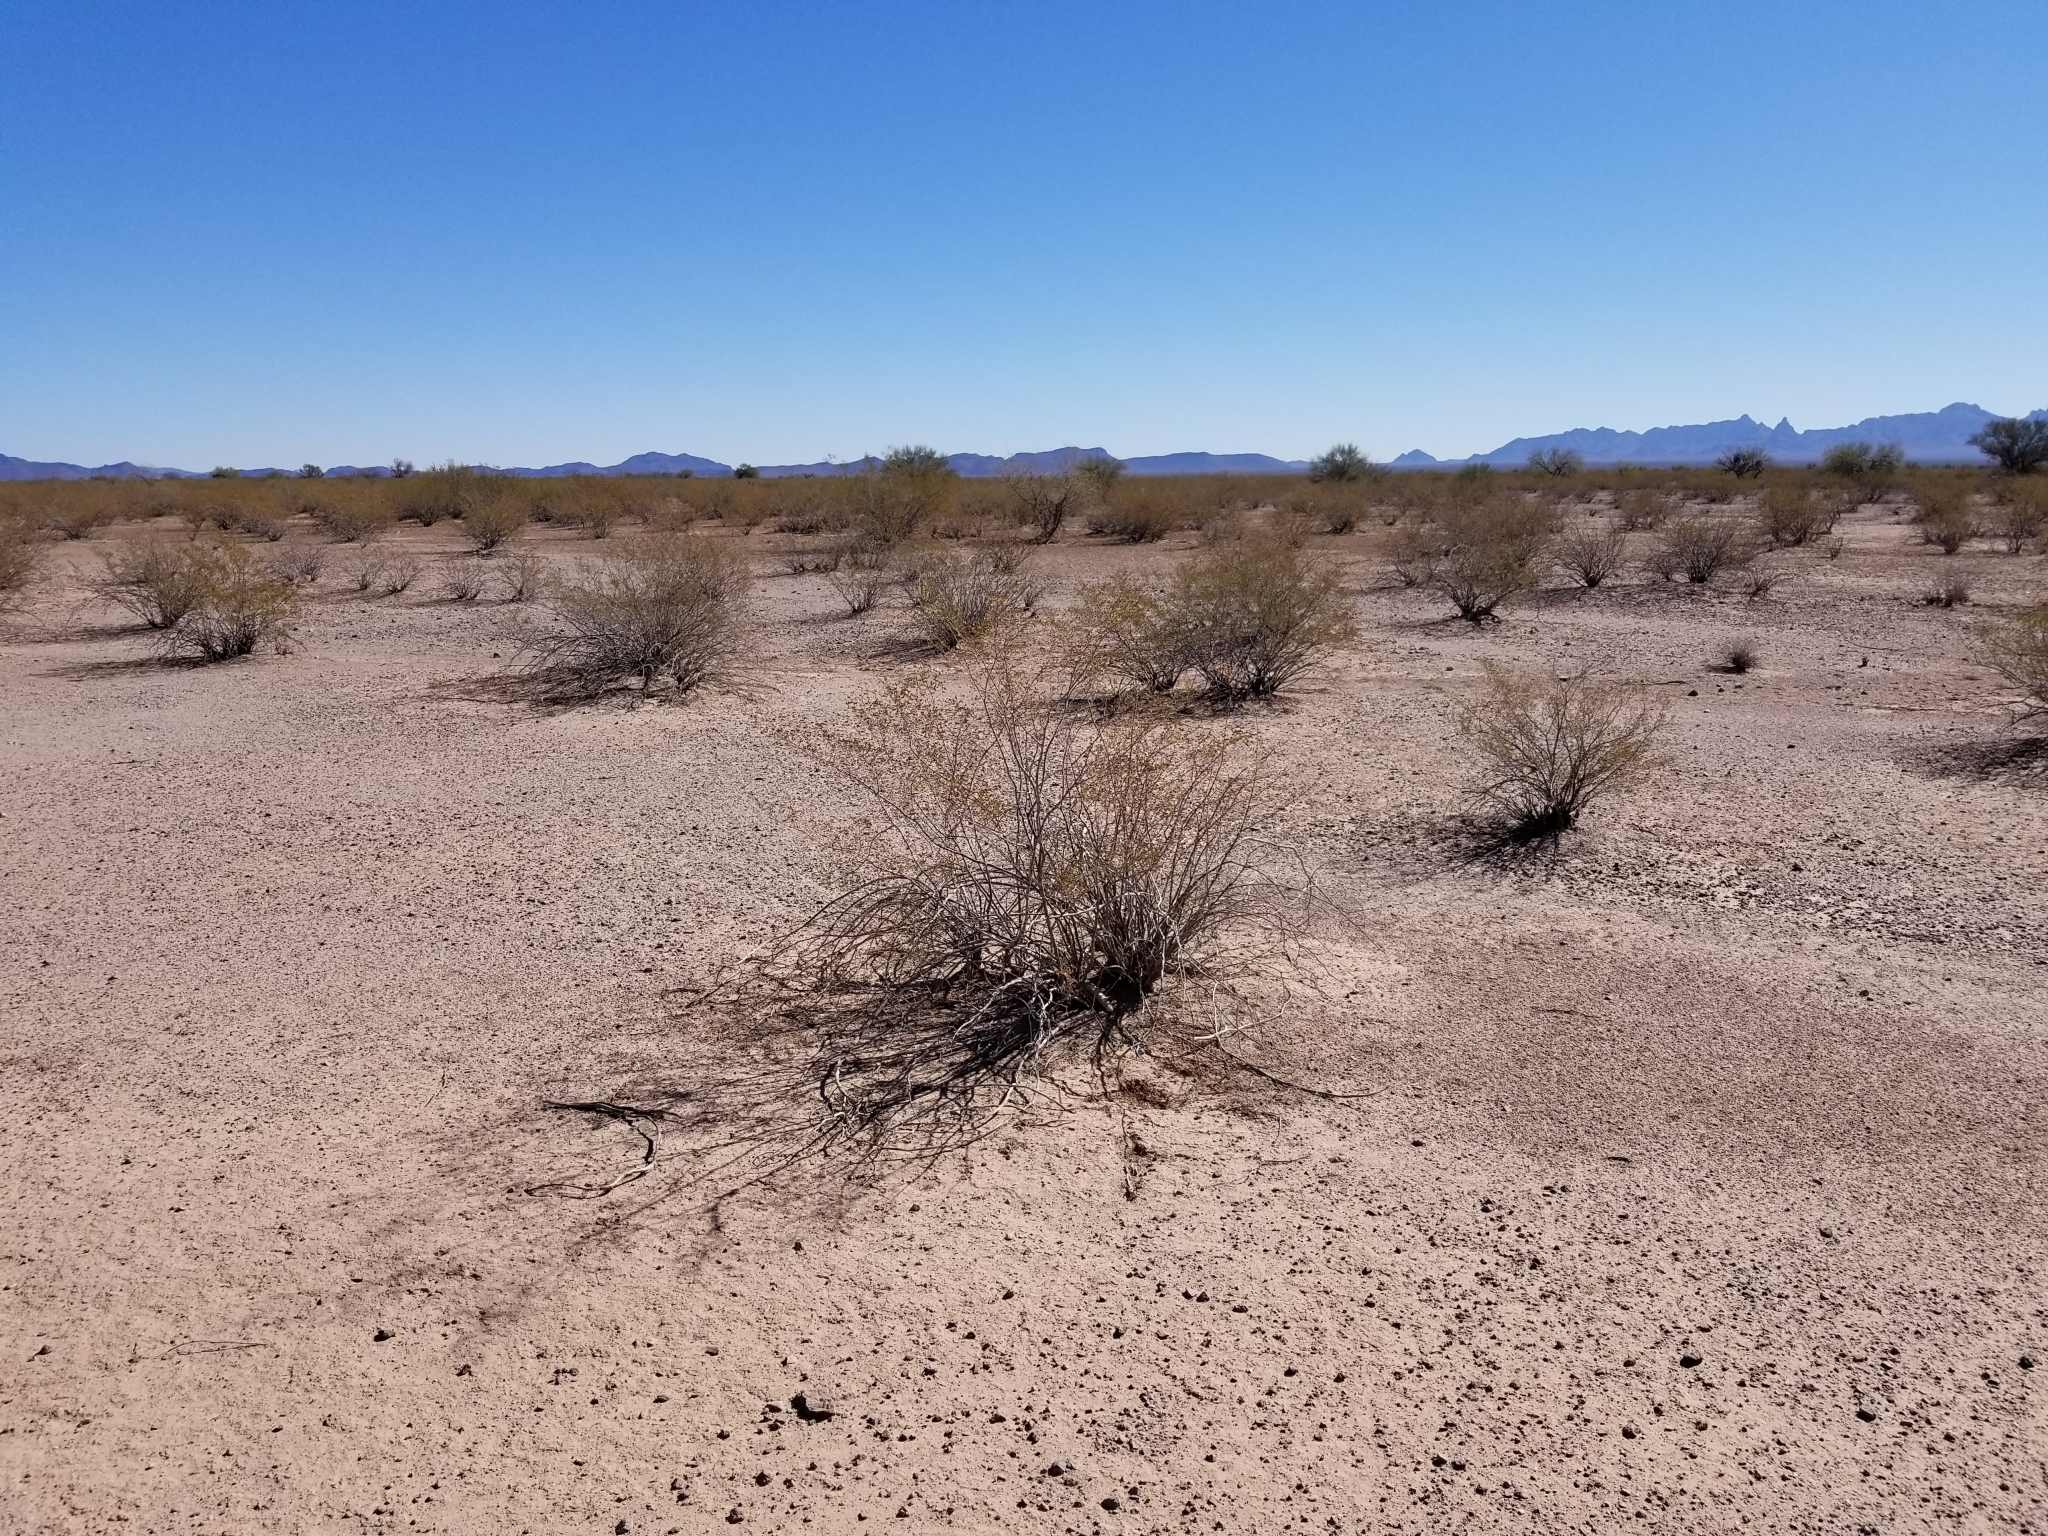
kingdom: Plantae
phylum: Tracheophyta
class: Magnoliopsida
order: Zygophyllales
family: Zygophyllaceae
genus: Larrea
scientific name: Larrea tridentata
